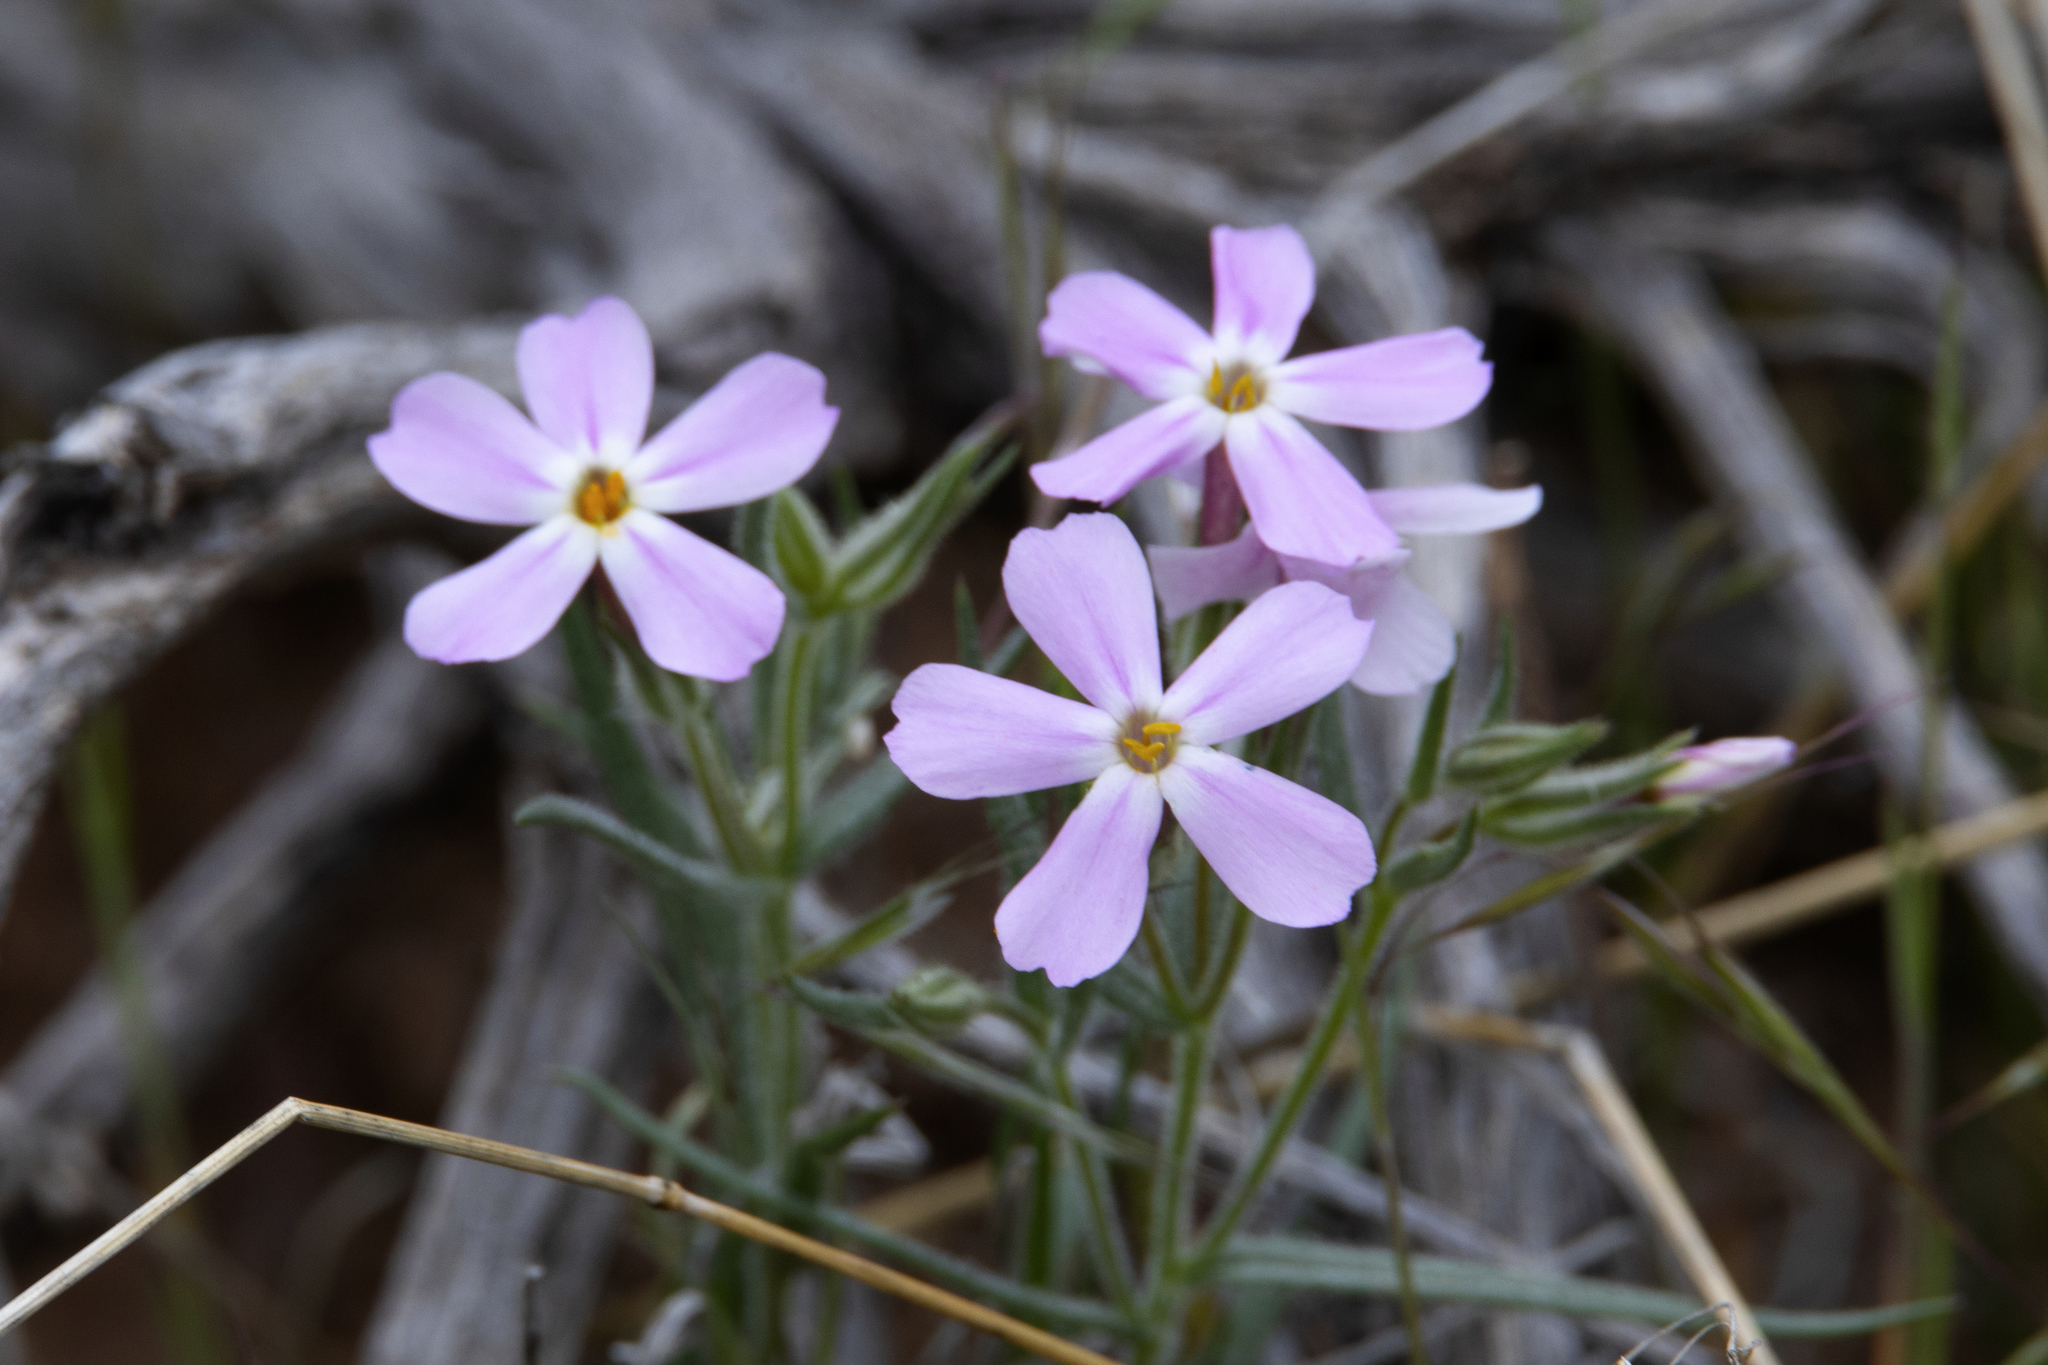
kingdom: Plantae
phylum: Tracheophyta
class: Magnoliopsida
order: Ericales
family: Polemoniaceae
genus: Phlox
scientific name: Phlox longifolia
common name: Longleaf phlox
